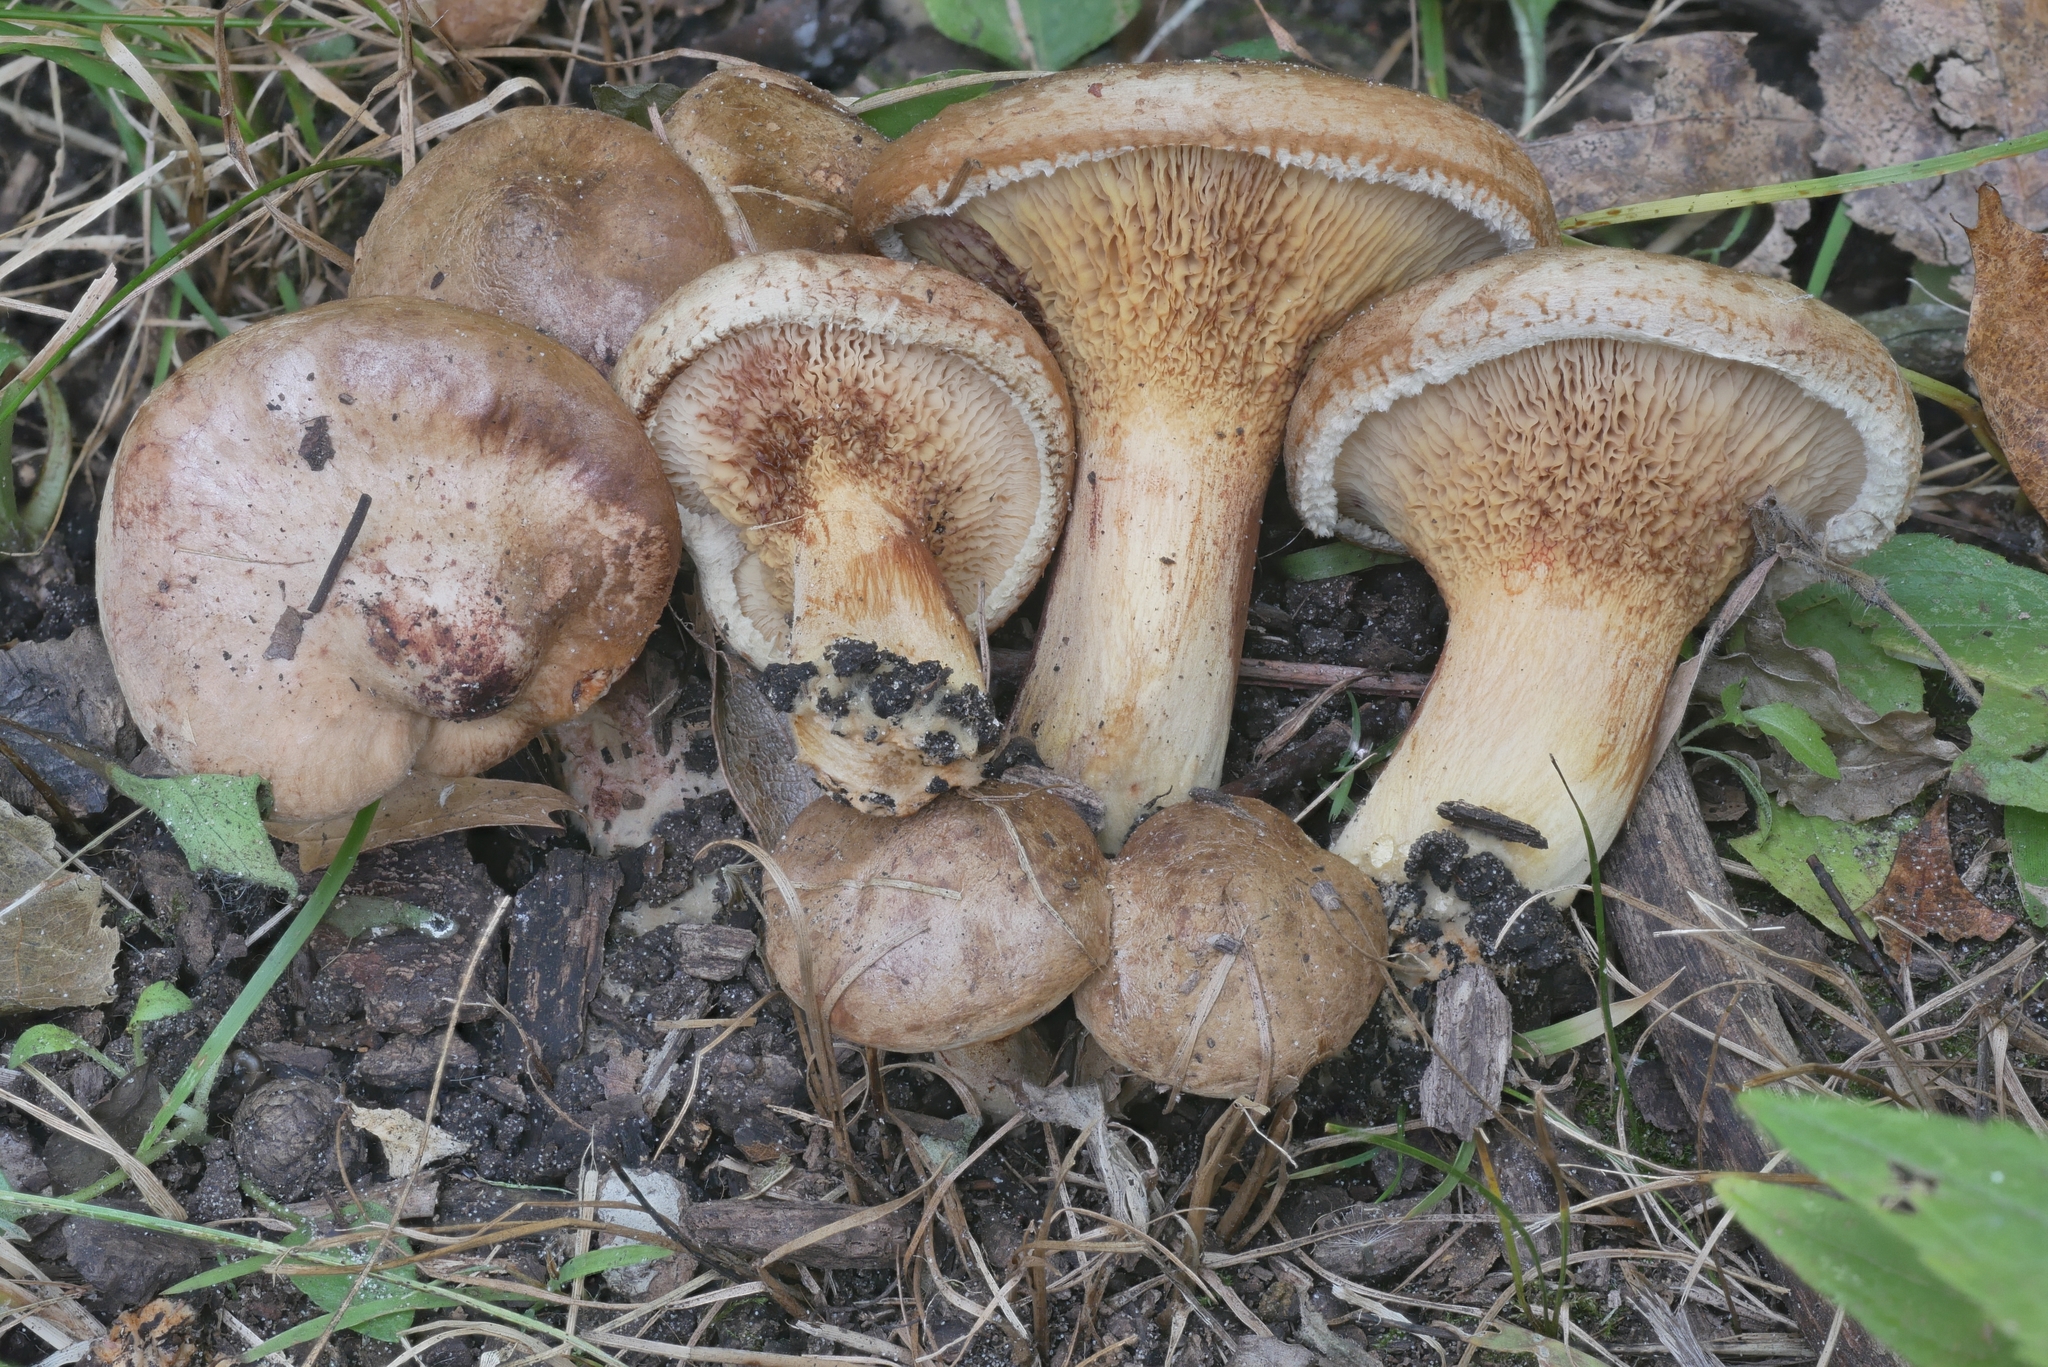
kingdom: Fungi
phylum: Basidiomycota
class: Agaricomycetes
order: Boletales
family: Paxillaceae
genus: Paxillus
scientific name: Paxillus involutus
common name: Brown roll rim
